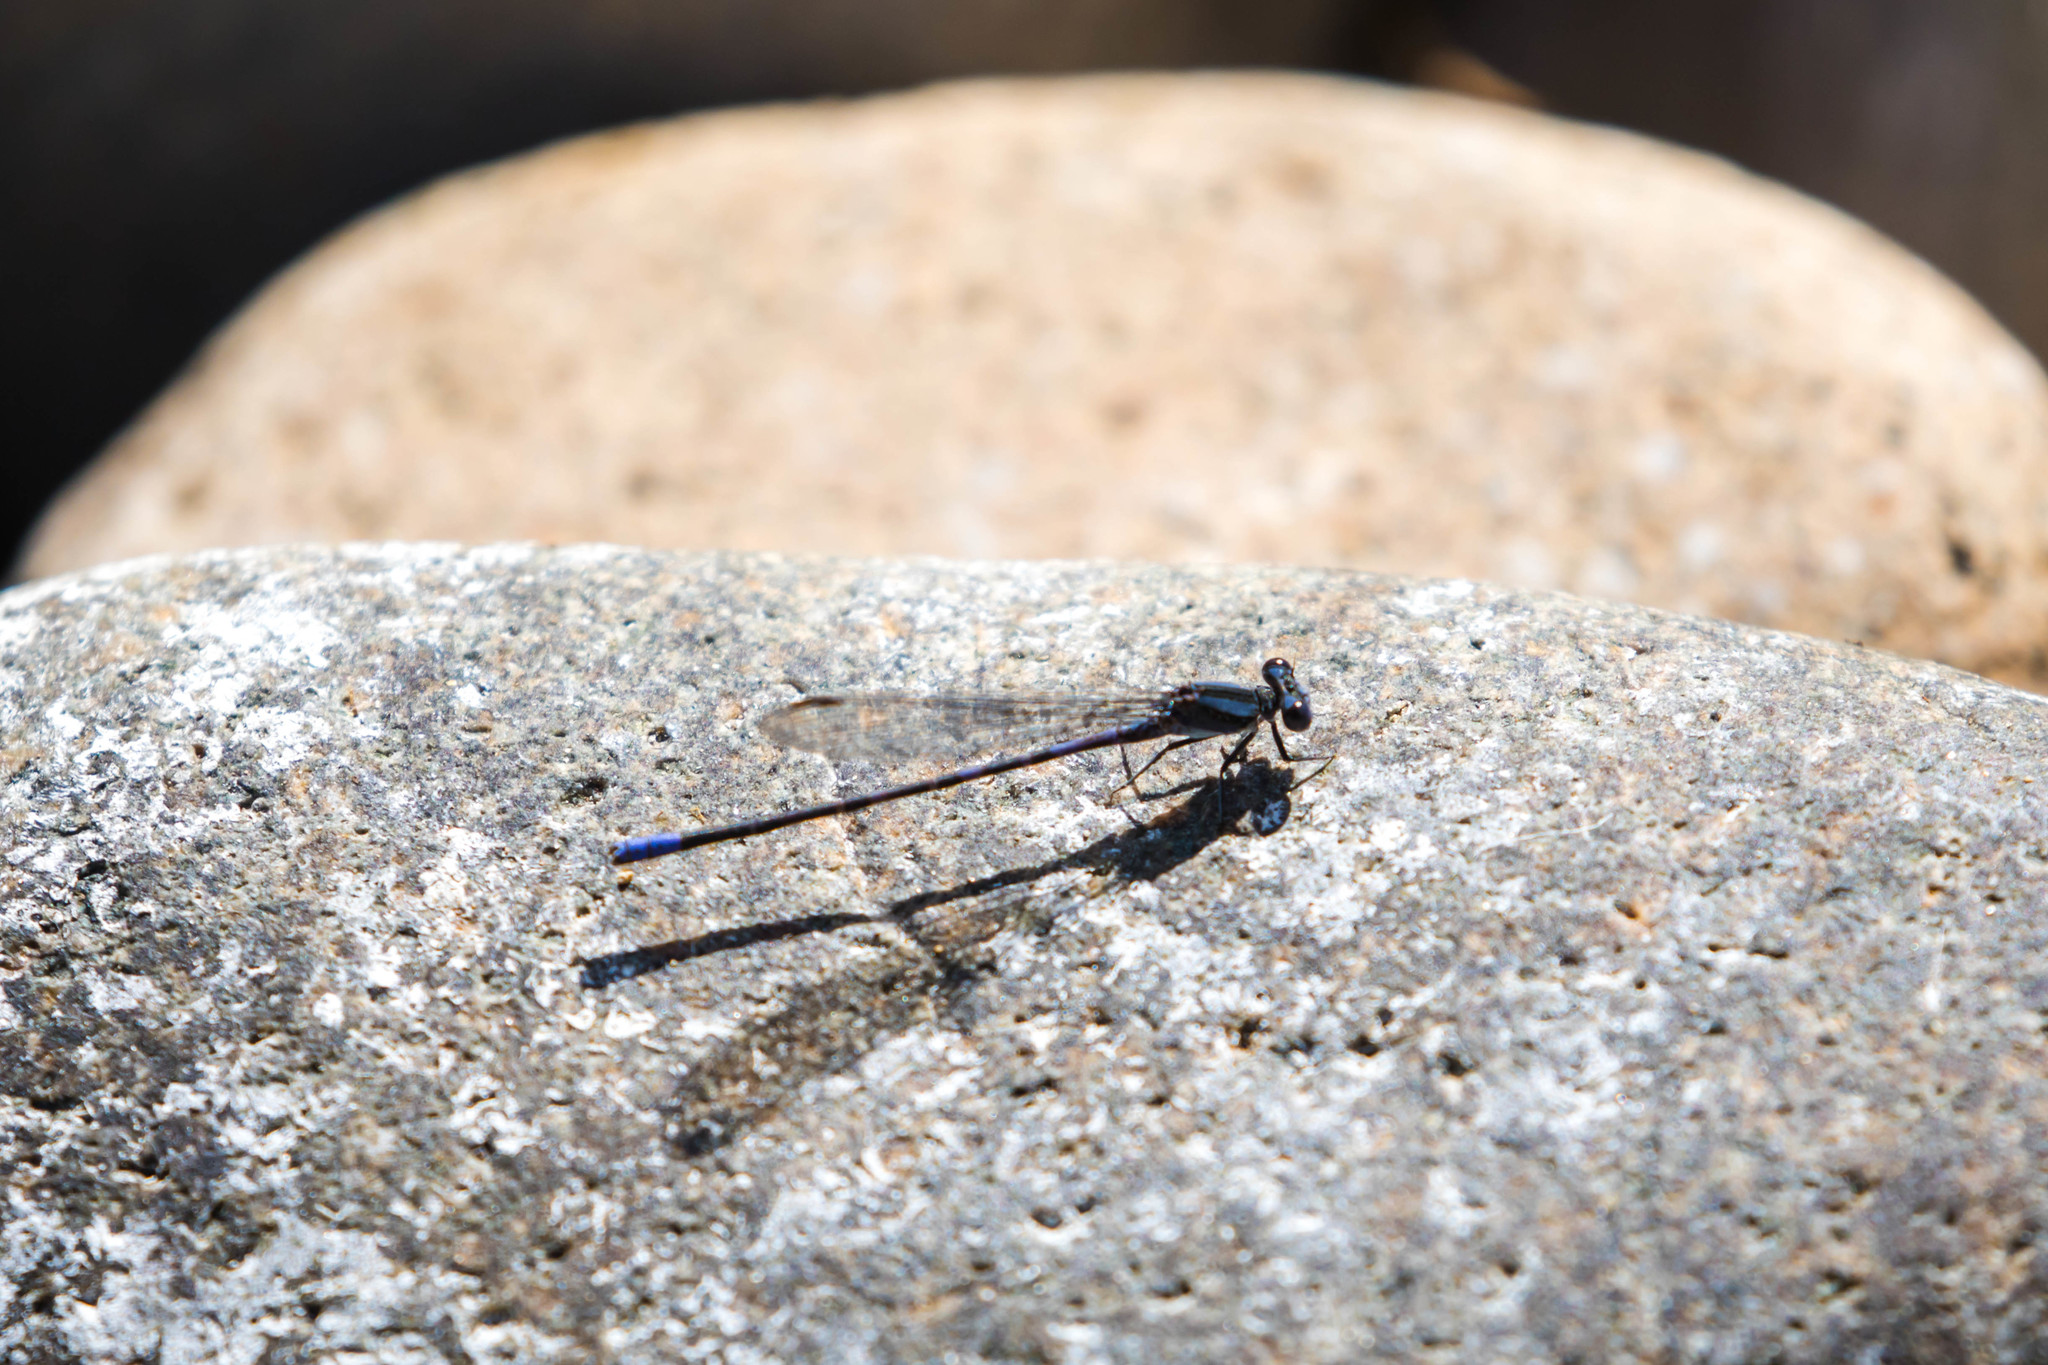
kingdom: Animalia
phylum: Arthropoda
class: Insecta
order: Odonata
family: Coenagrionidae
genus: Argia
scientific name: Argia immunda
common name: Kiowa dancer
